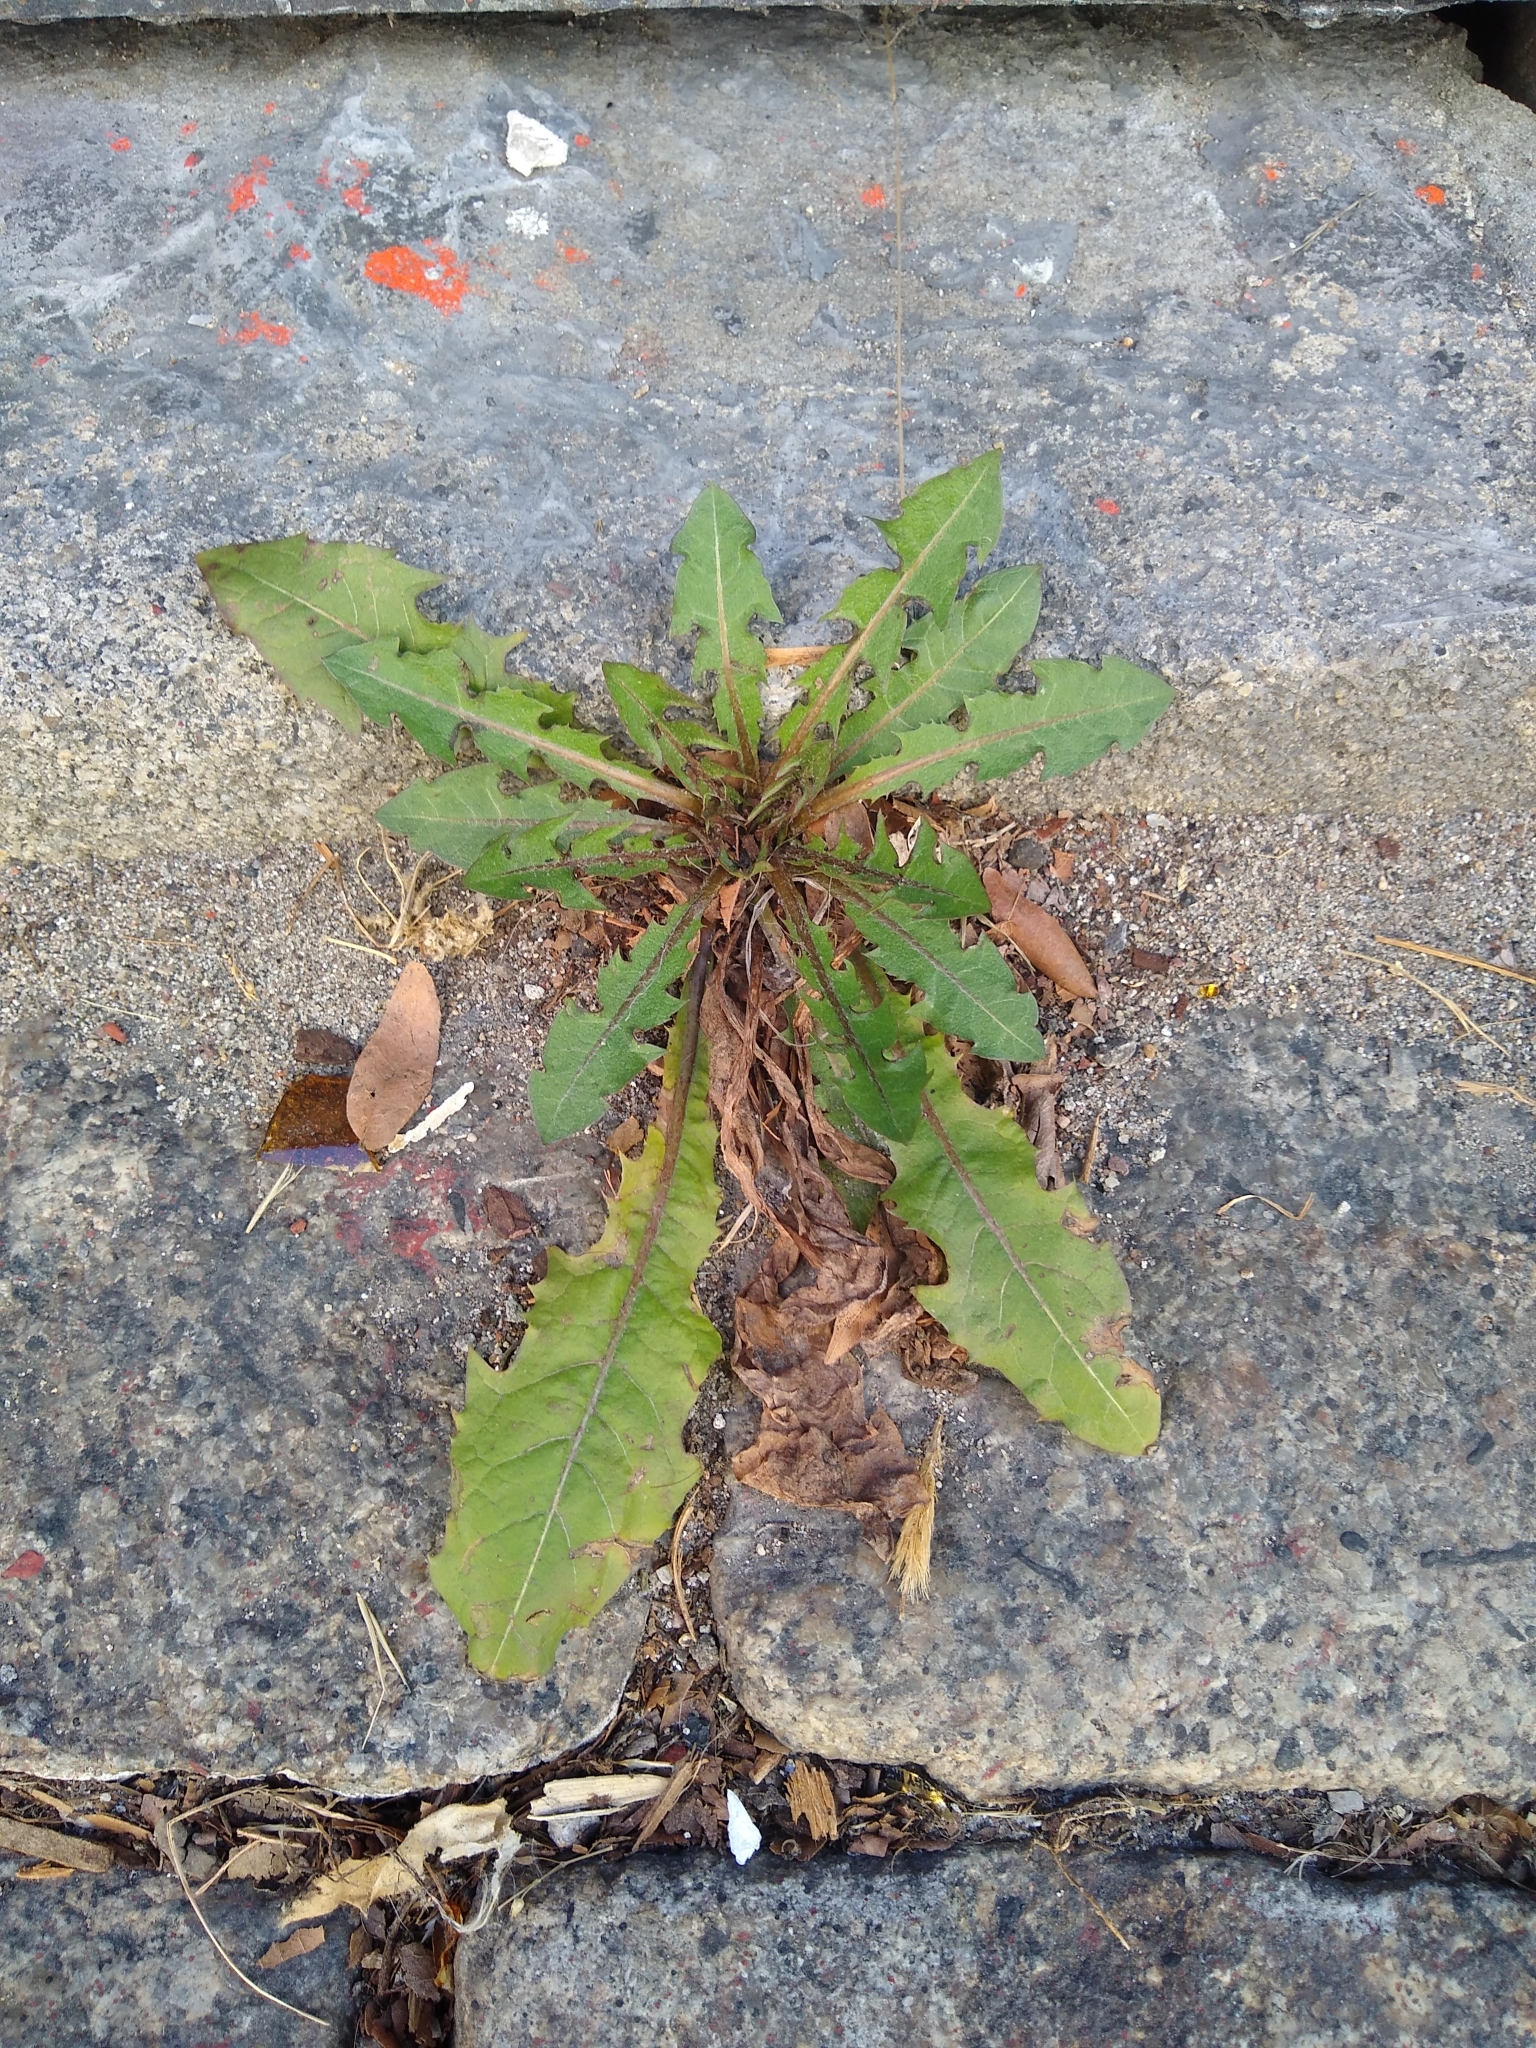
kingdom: Plantae
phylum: Tracheophyta
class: Magnoliopsida
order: Asterales
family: Asteraceae
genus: Taraxacum
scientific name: Taraxacum officinale
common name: Common dandelion
